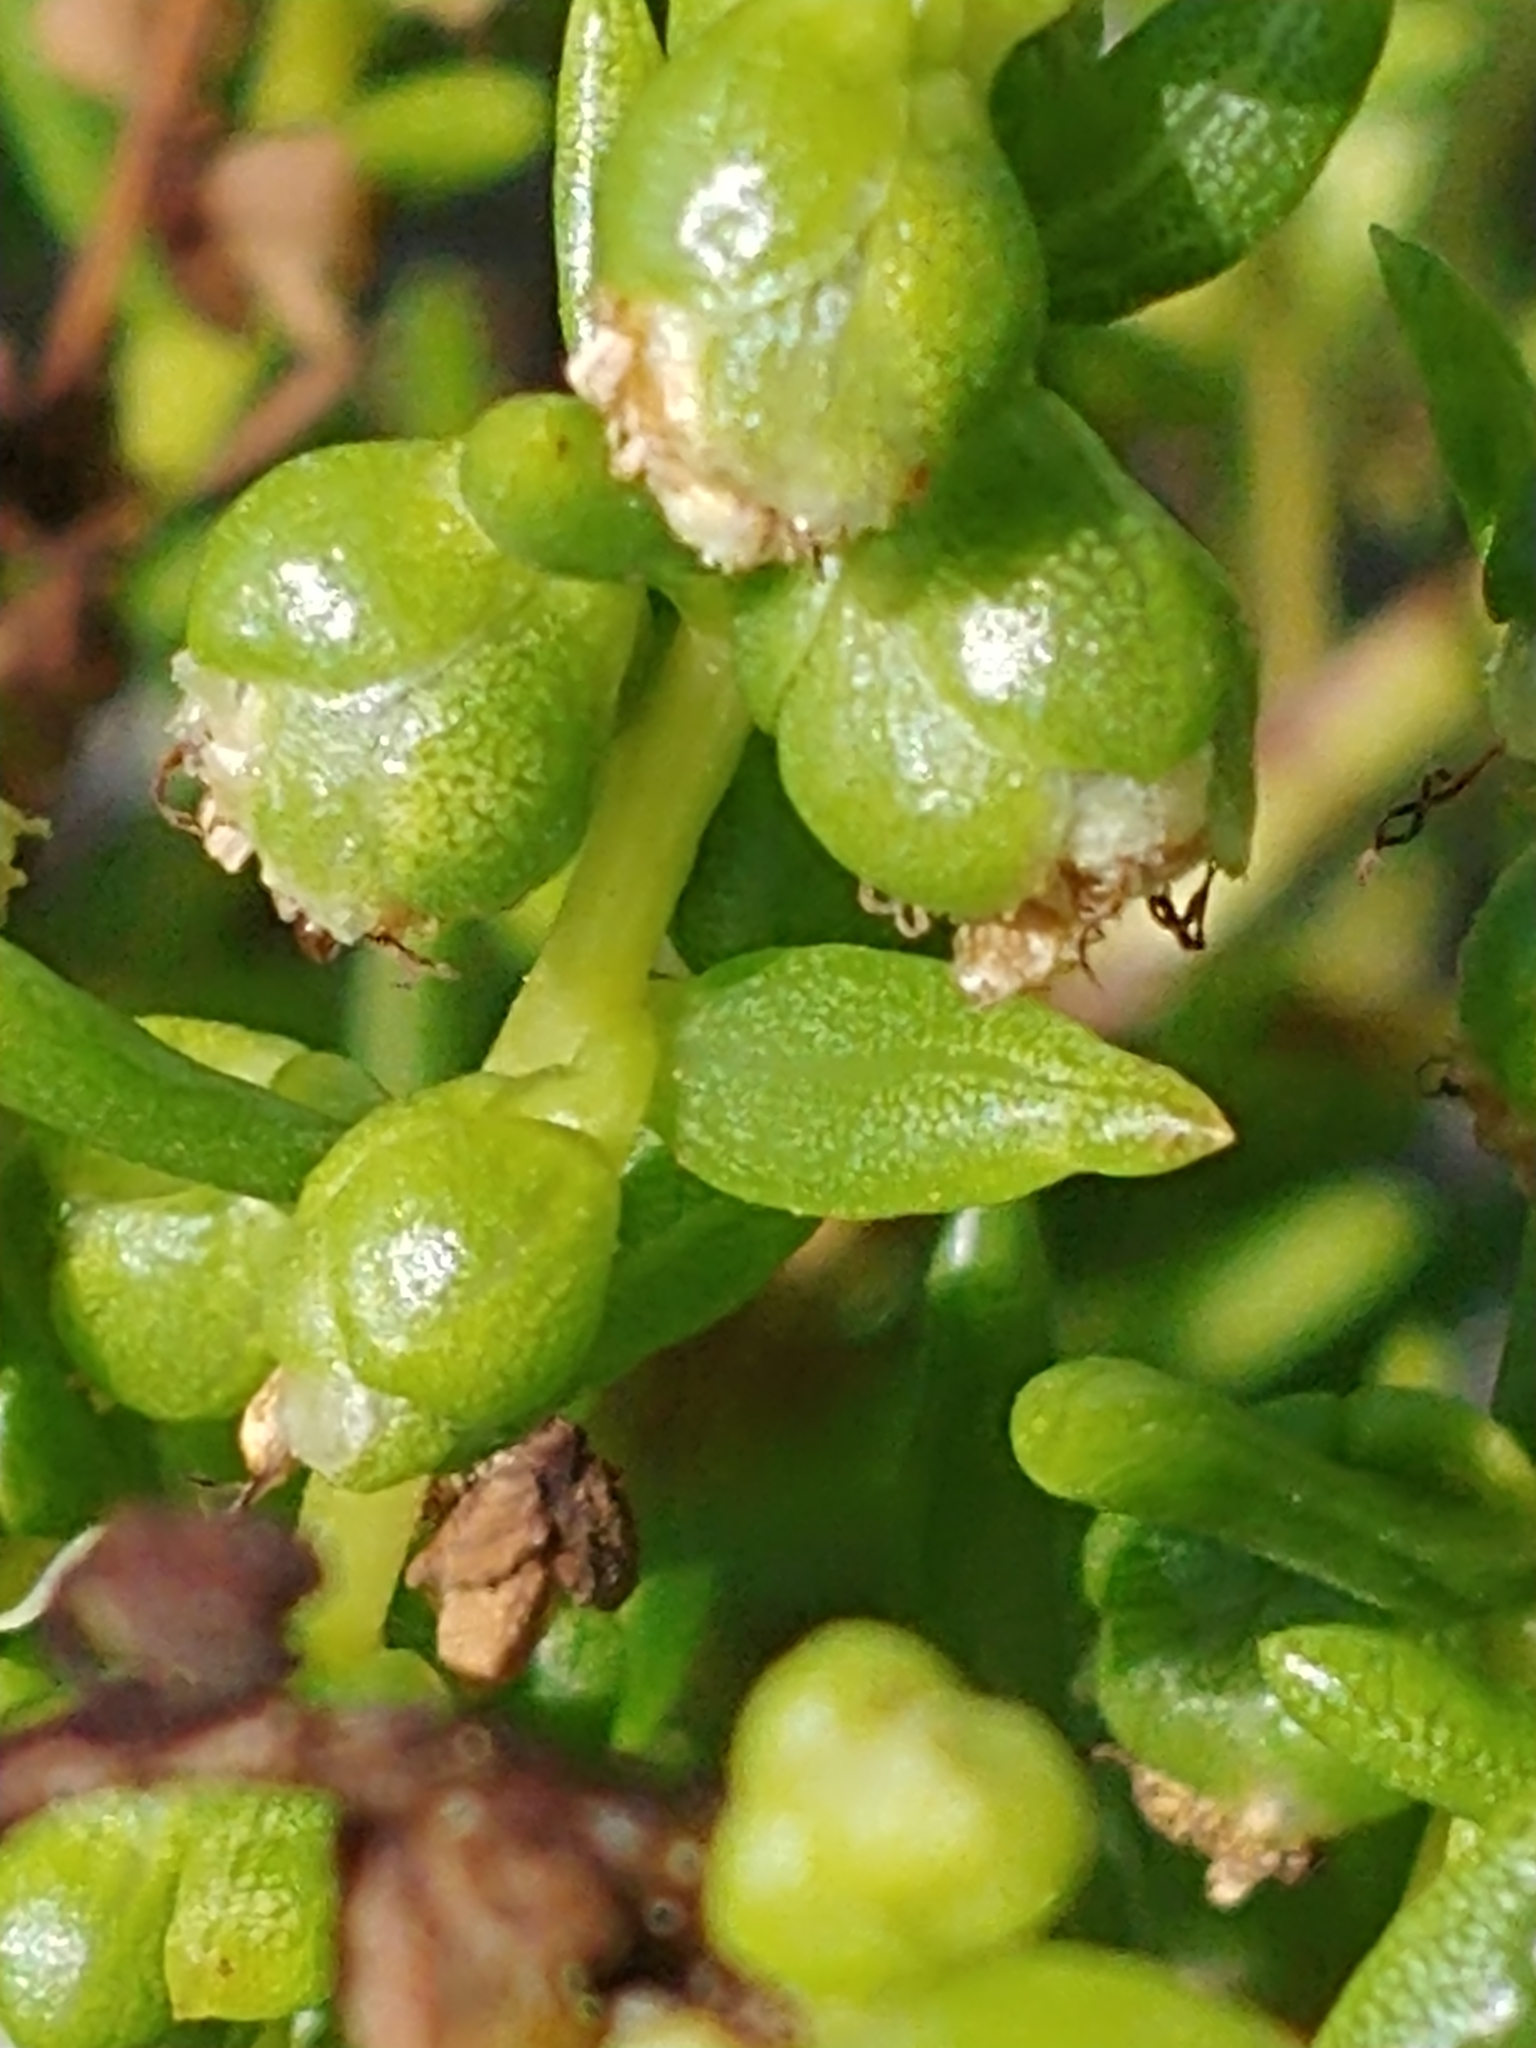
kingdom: Plantae
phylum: Tracheophyta
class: Magnoliopsida
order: Asterales
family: Asteraceae
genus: Iva
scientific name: Iva imbricata
